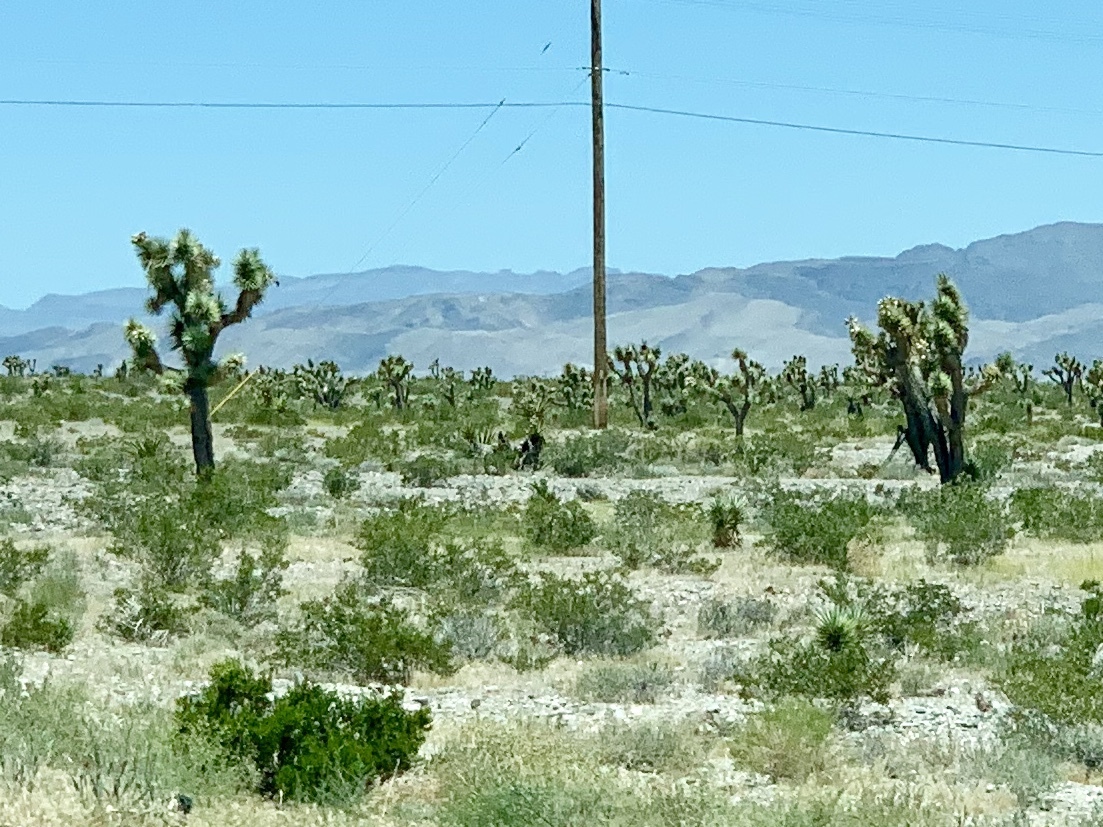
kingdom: Plantae
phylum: Tracheophyta
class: Liliopsida
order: Asparagales
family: Asparagaceae
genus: Yucca
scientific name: Yucca brevifolia
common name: Joshua tree
